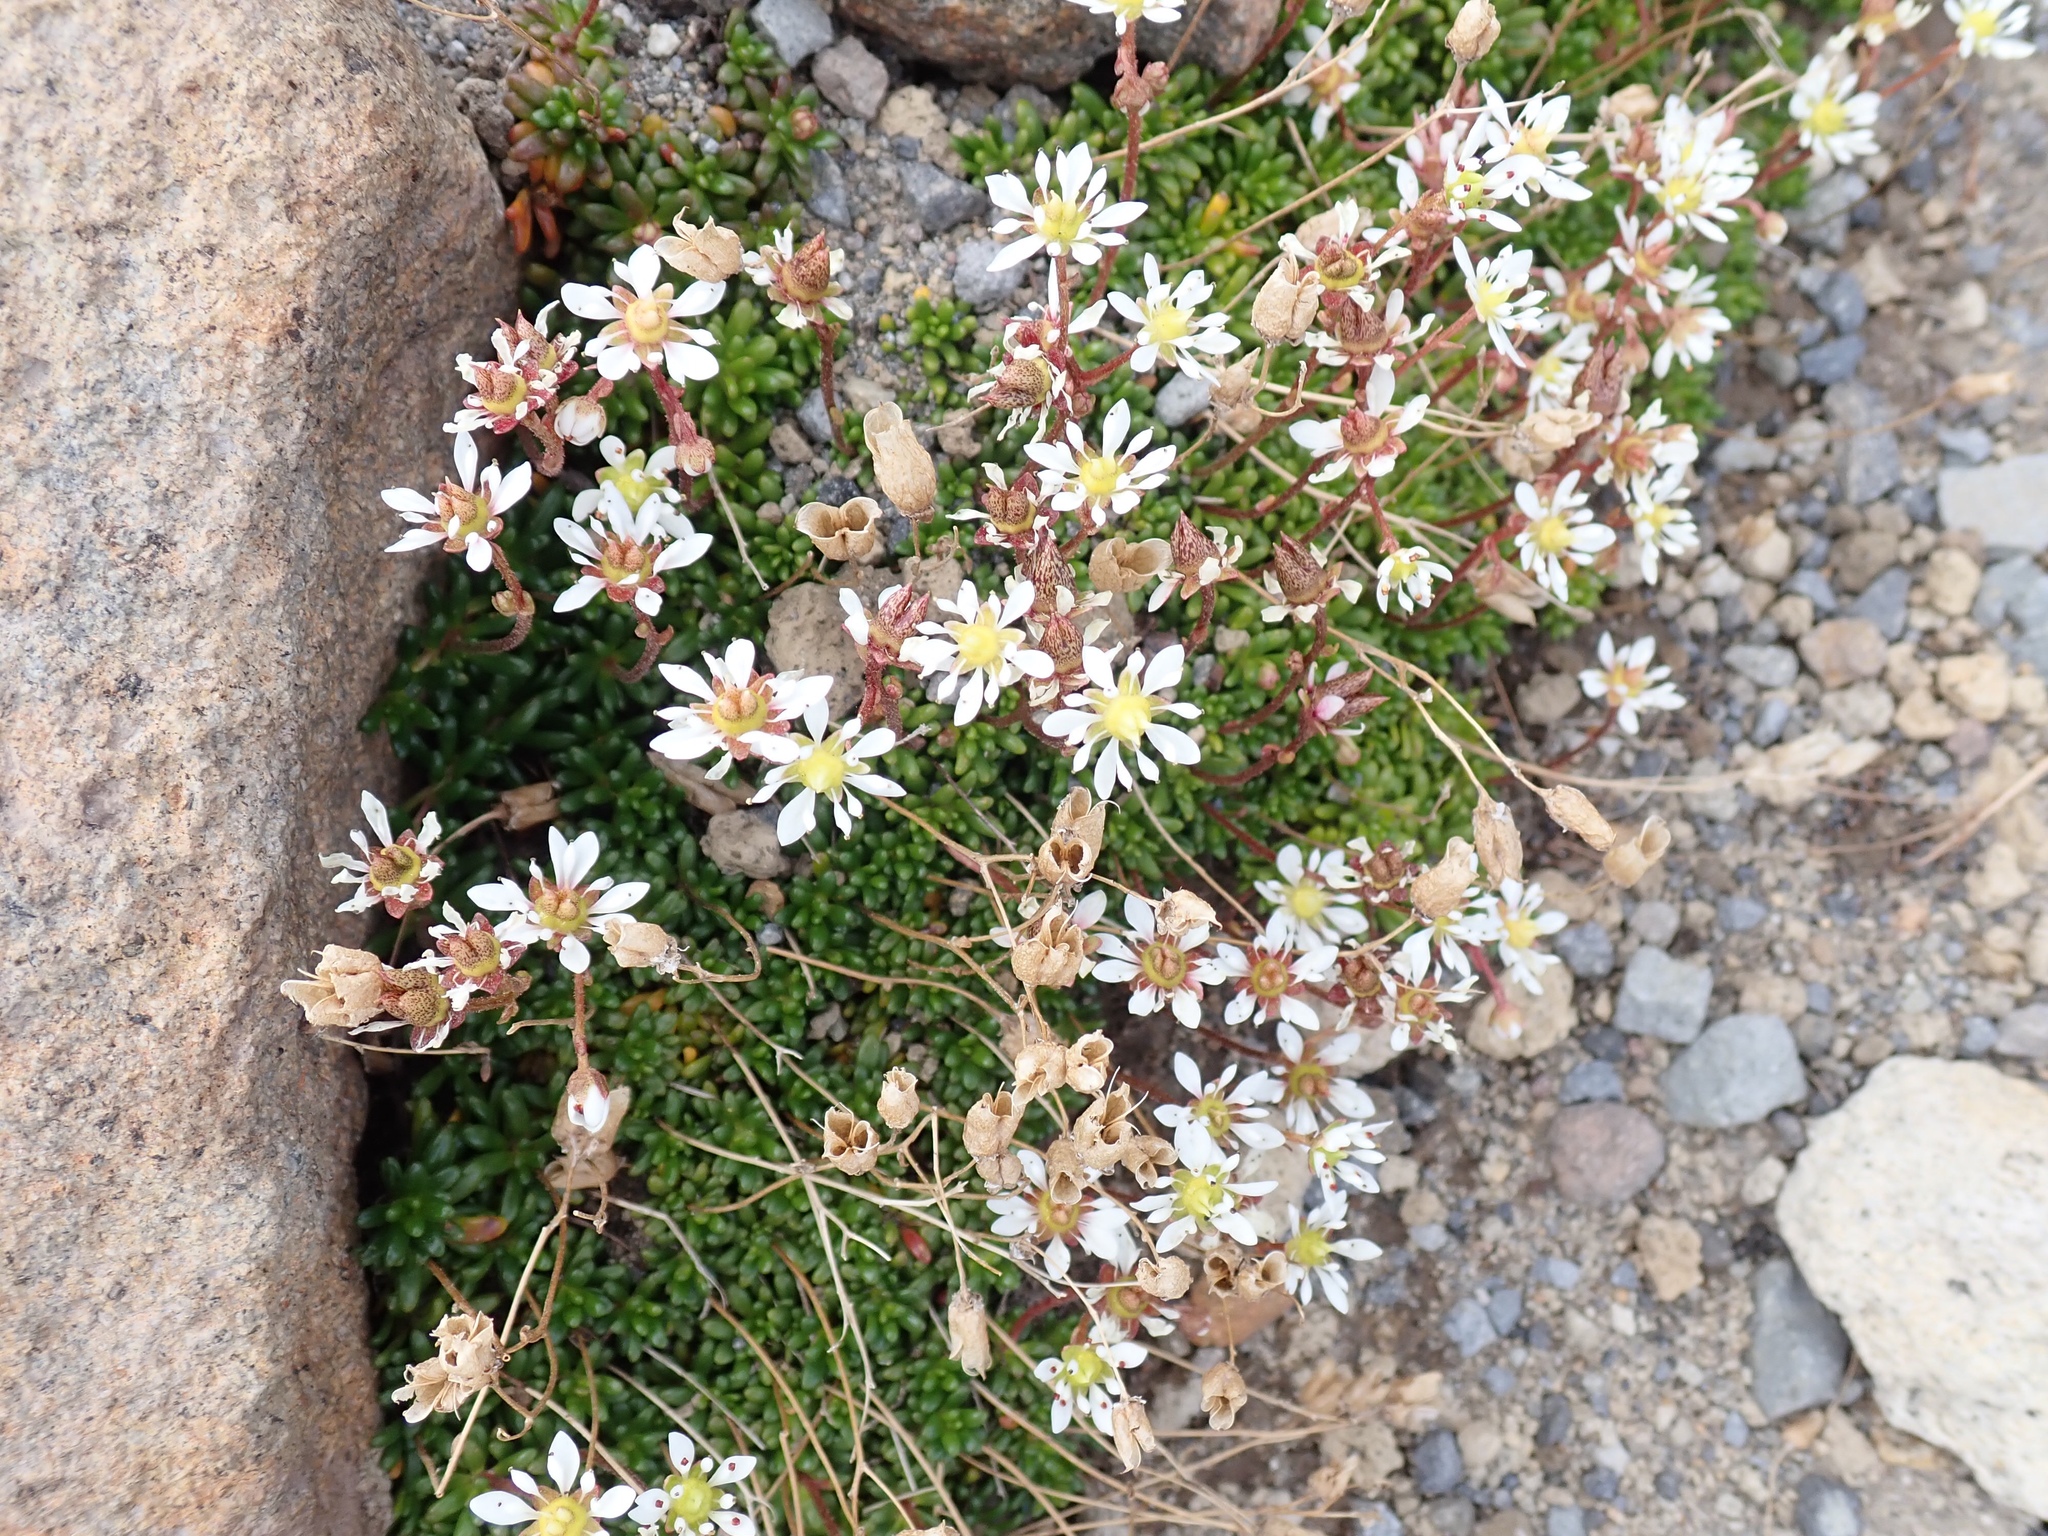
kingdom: Plantae
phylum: Tracheophyta
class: Magnoliopsida
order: Saxifragales
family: Saxifragaceae
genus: Micranthes
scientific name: Micranthes tolmiei
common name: Tolmie's saxifrage
